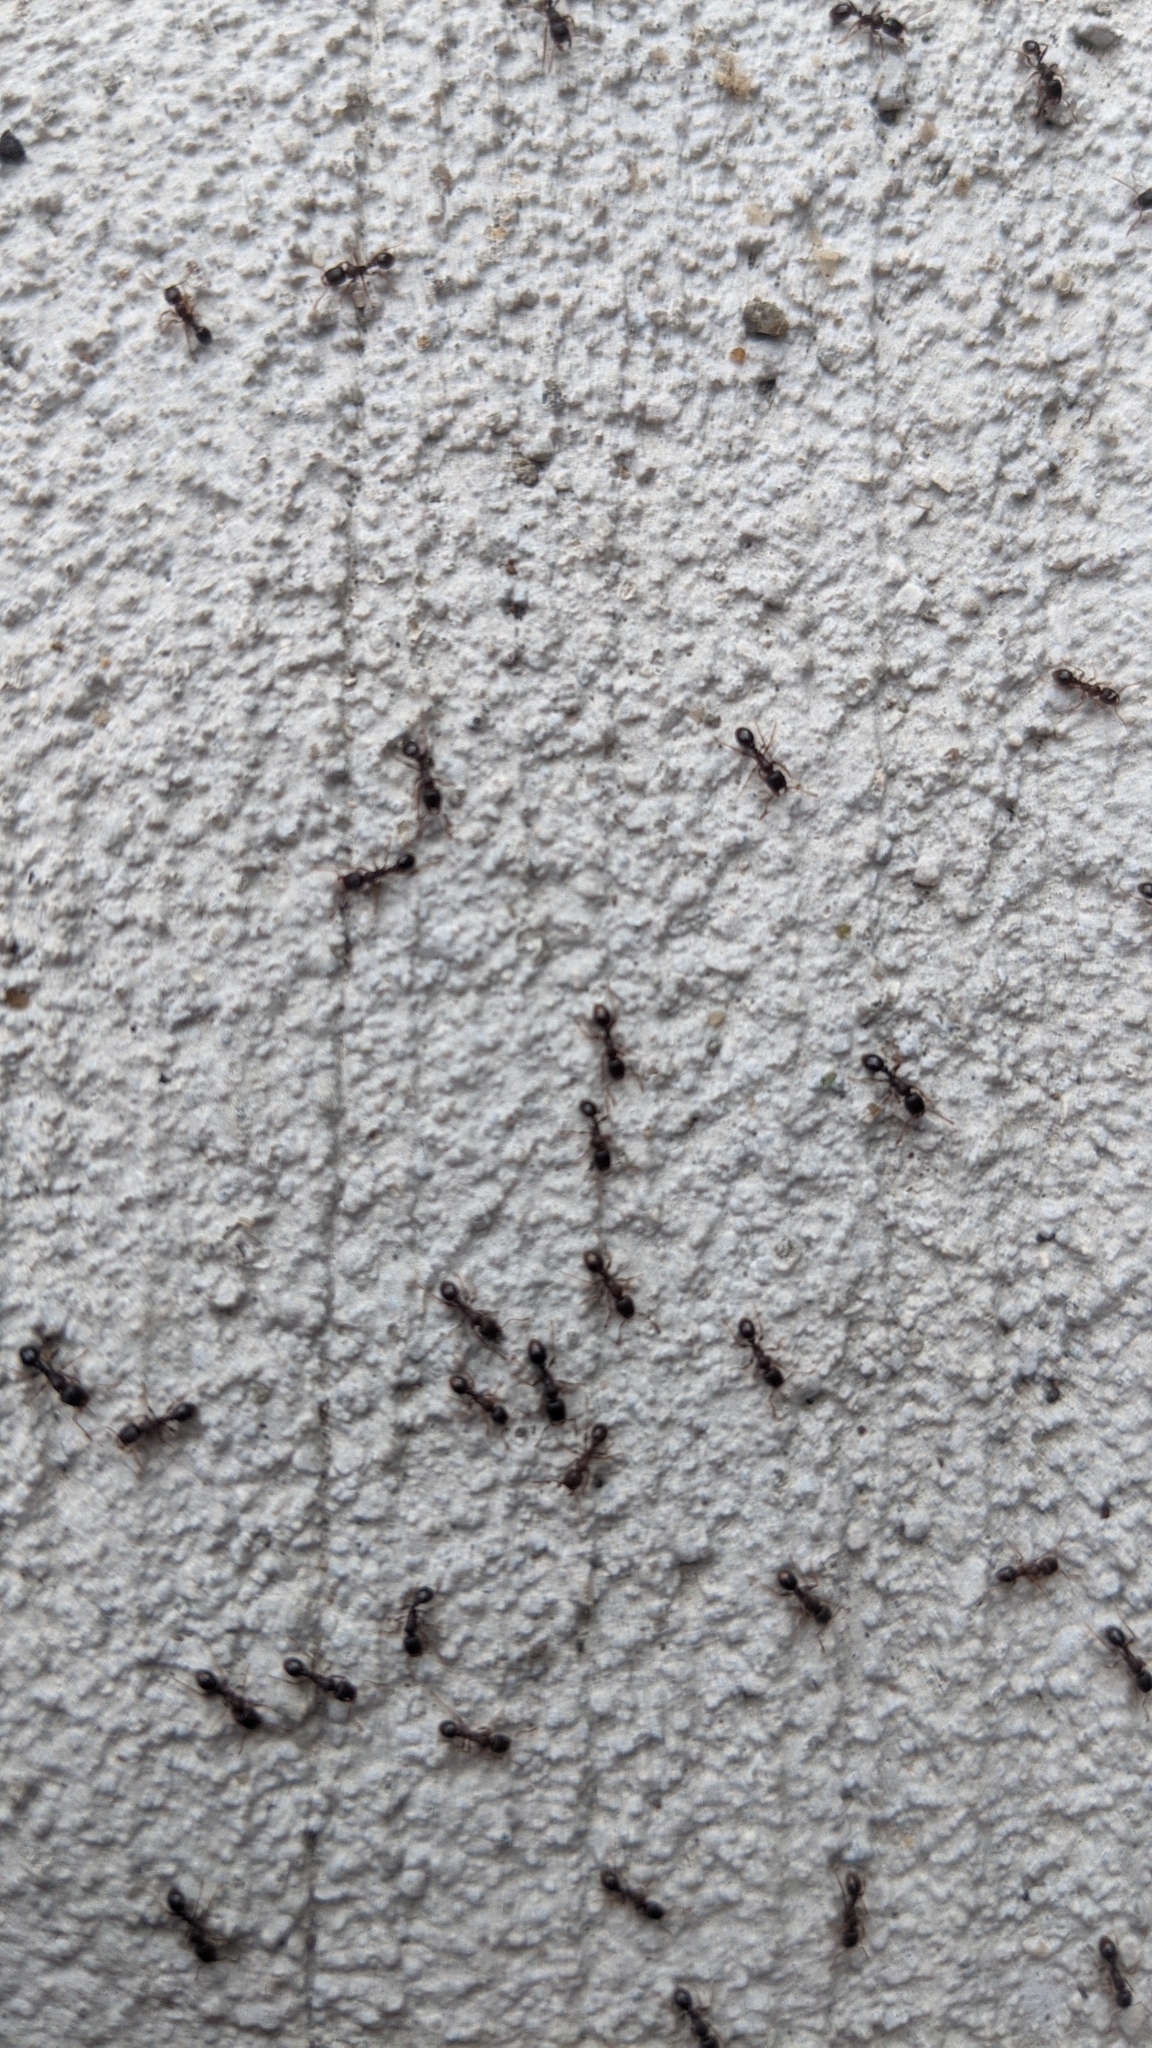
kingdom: Animalia
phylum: Arthropoda
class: Insecta
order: Hymenoptera
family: Formicidae
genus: Tetramorium
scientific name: Tetramorium immigrans
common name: Pavement ant
